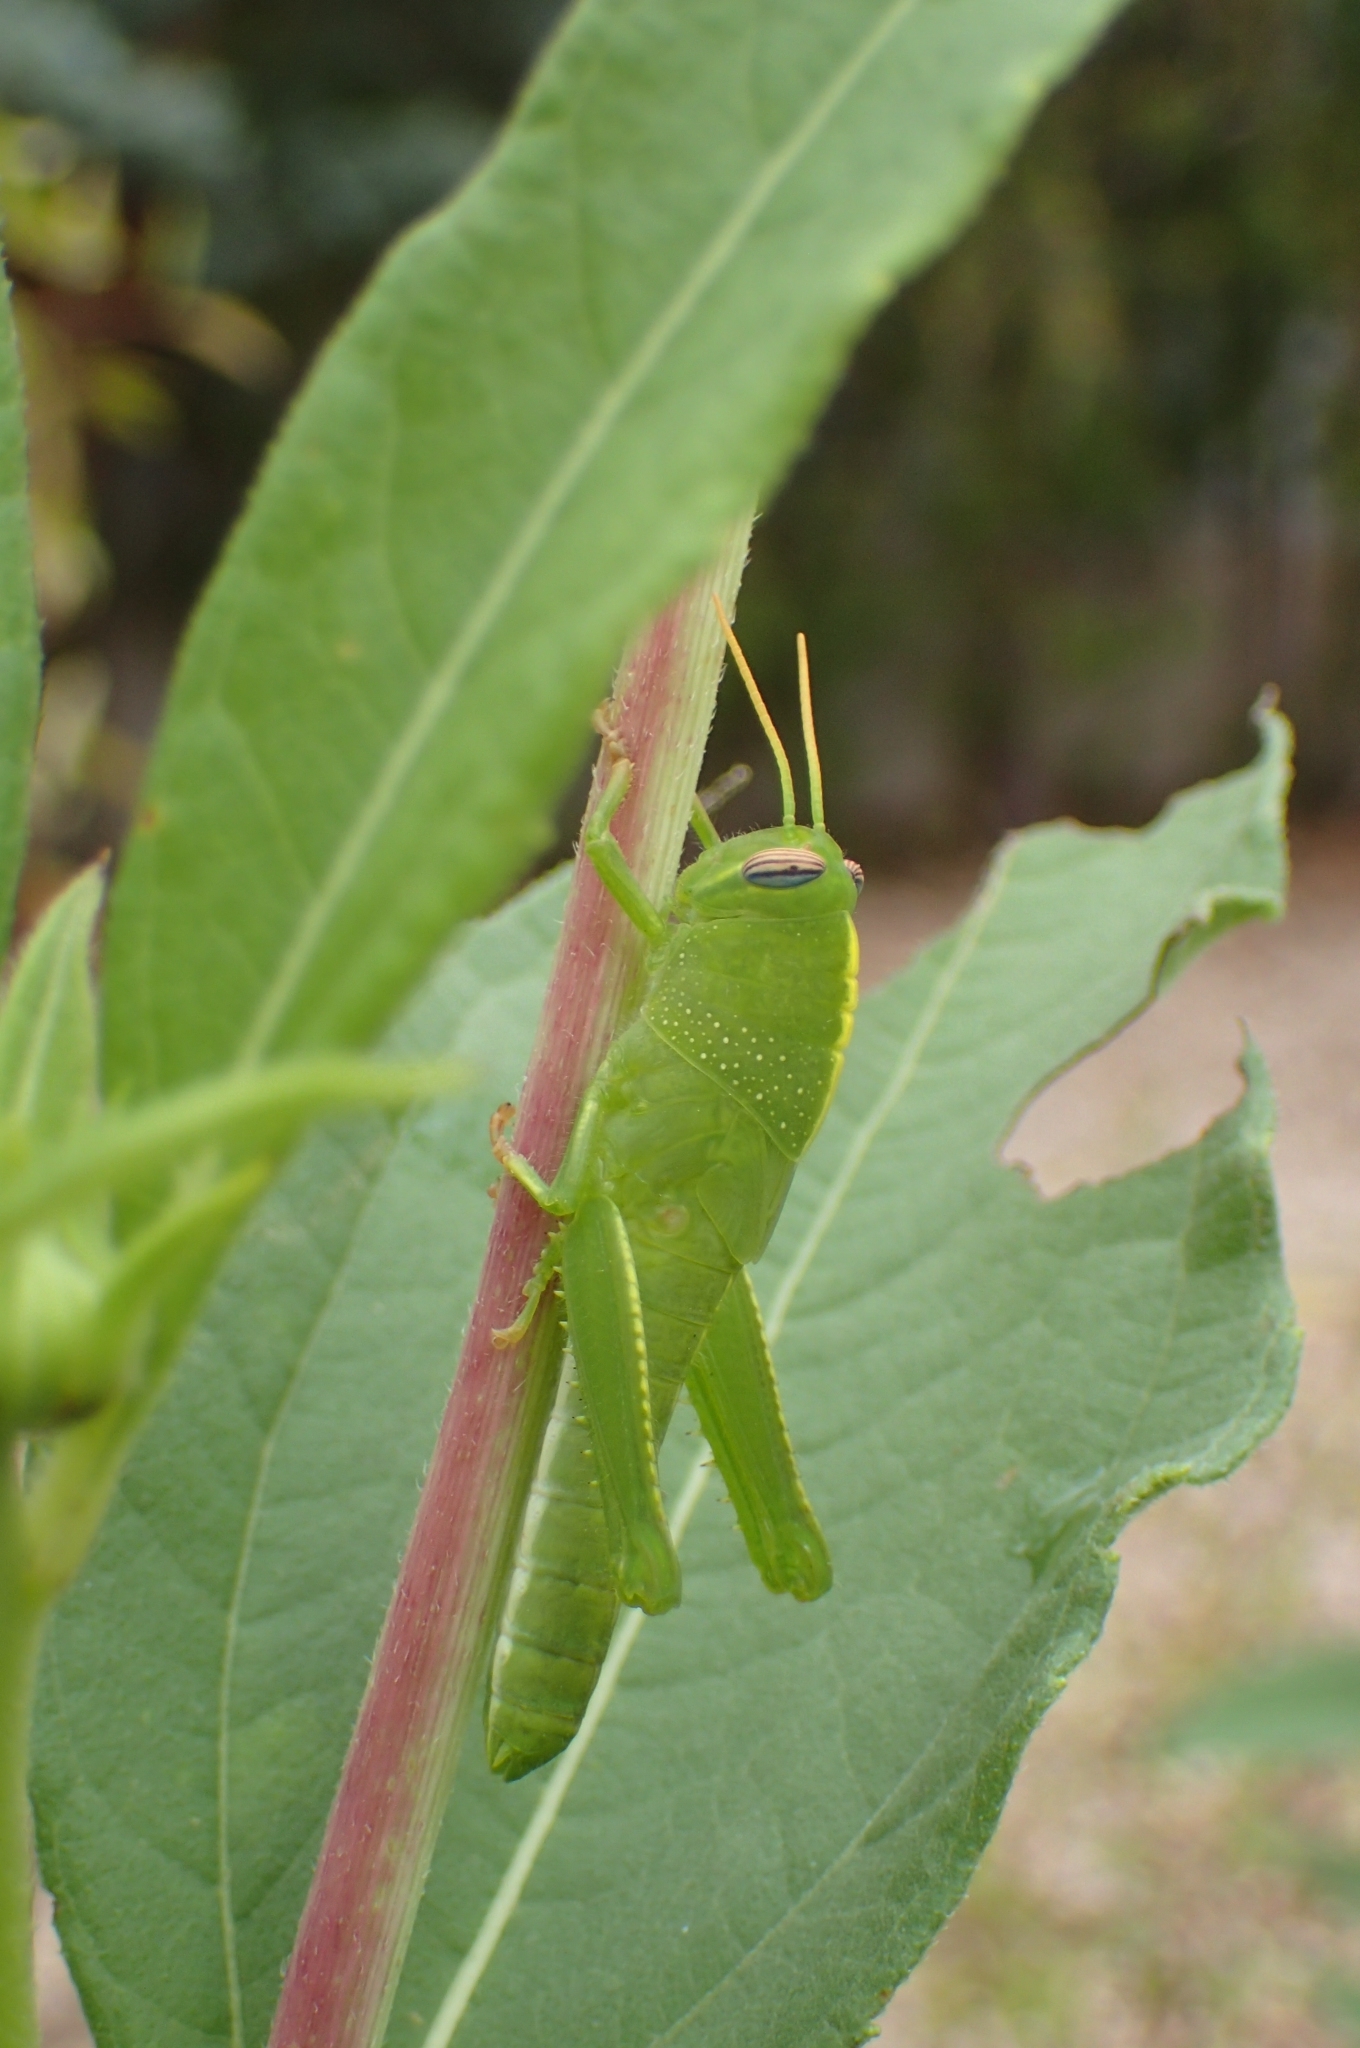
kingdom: Animalia
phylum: Arthropoda
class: Insecta
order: Orthoptera
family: Acrididae
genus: Anacridium
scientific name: Anacridium aegyptium
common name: Egyptian grasshopper
